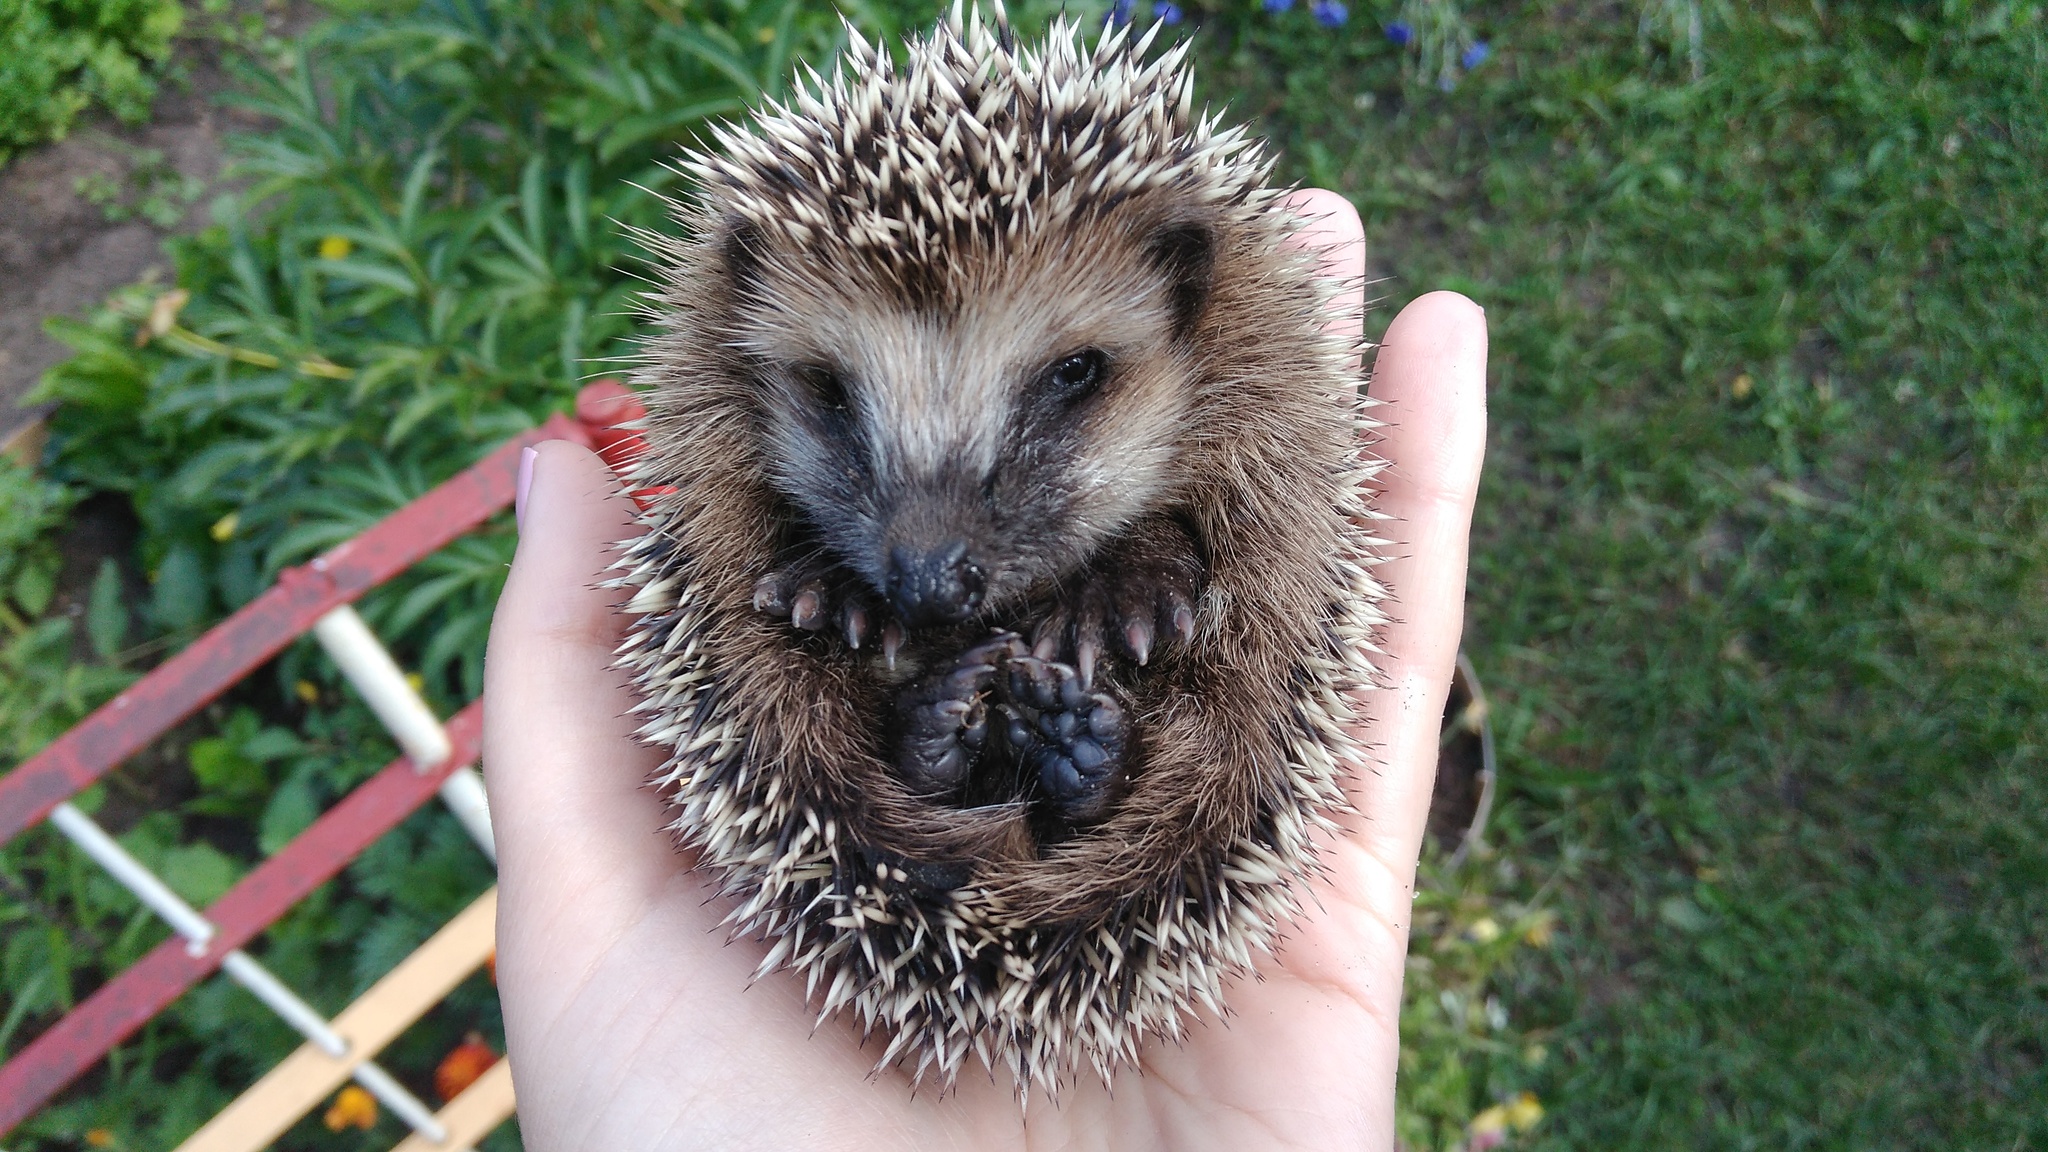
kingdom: Animalia
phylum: Chordata
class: Mammalia
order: Erinaceomorpha
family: Erinaceidae
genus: Erinaceus
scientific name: Erinaceus europaeus
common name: West european hedgehog
